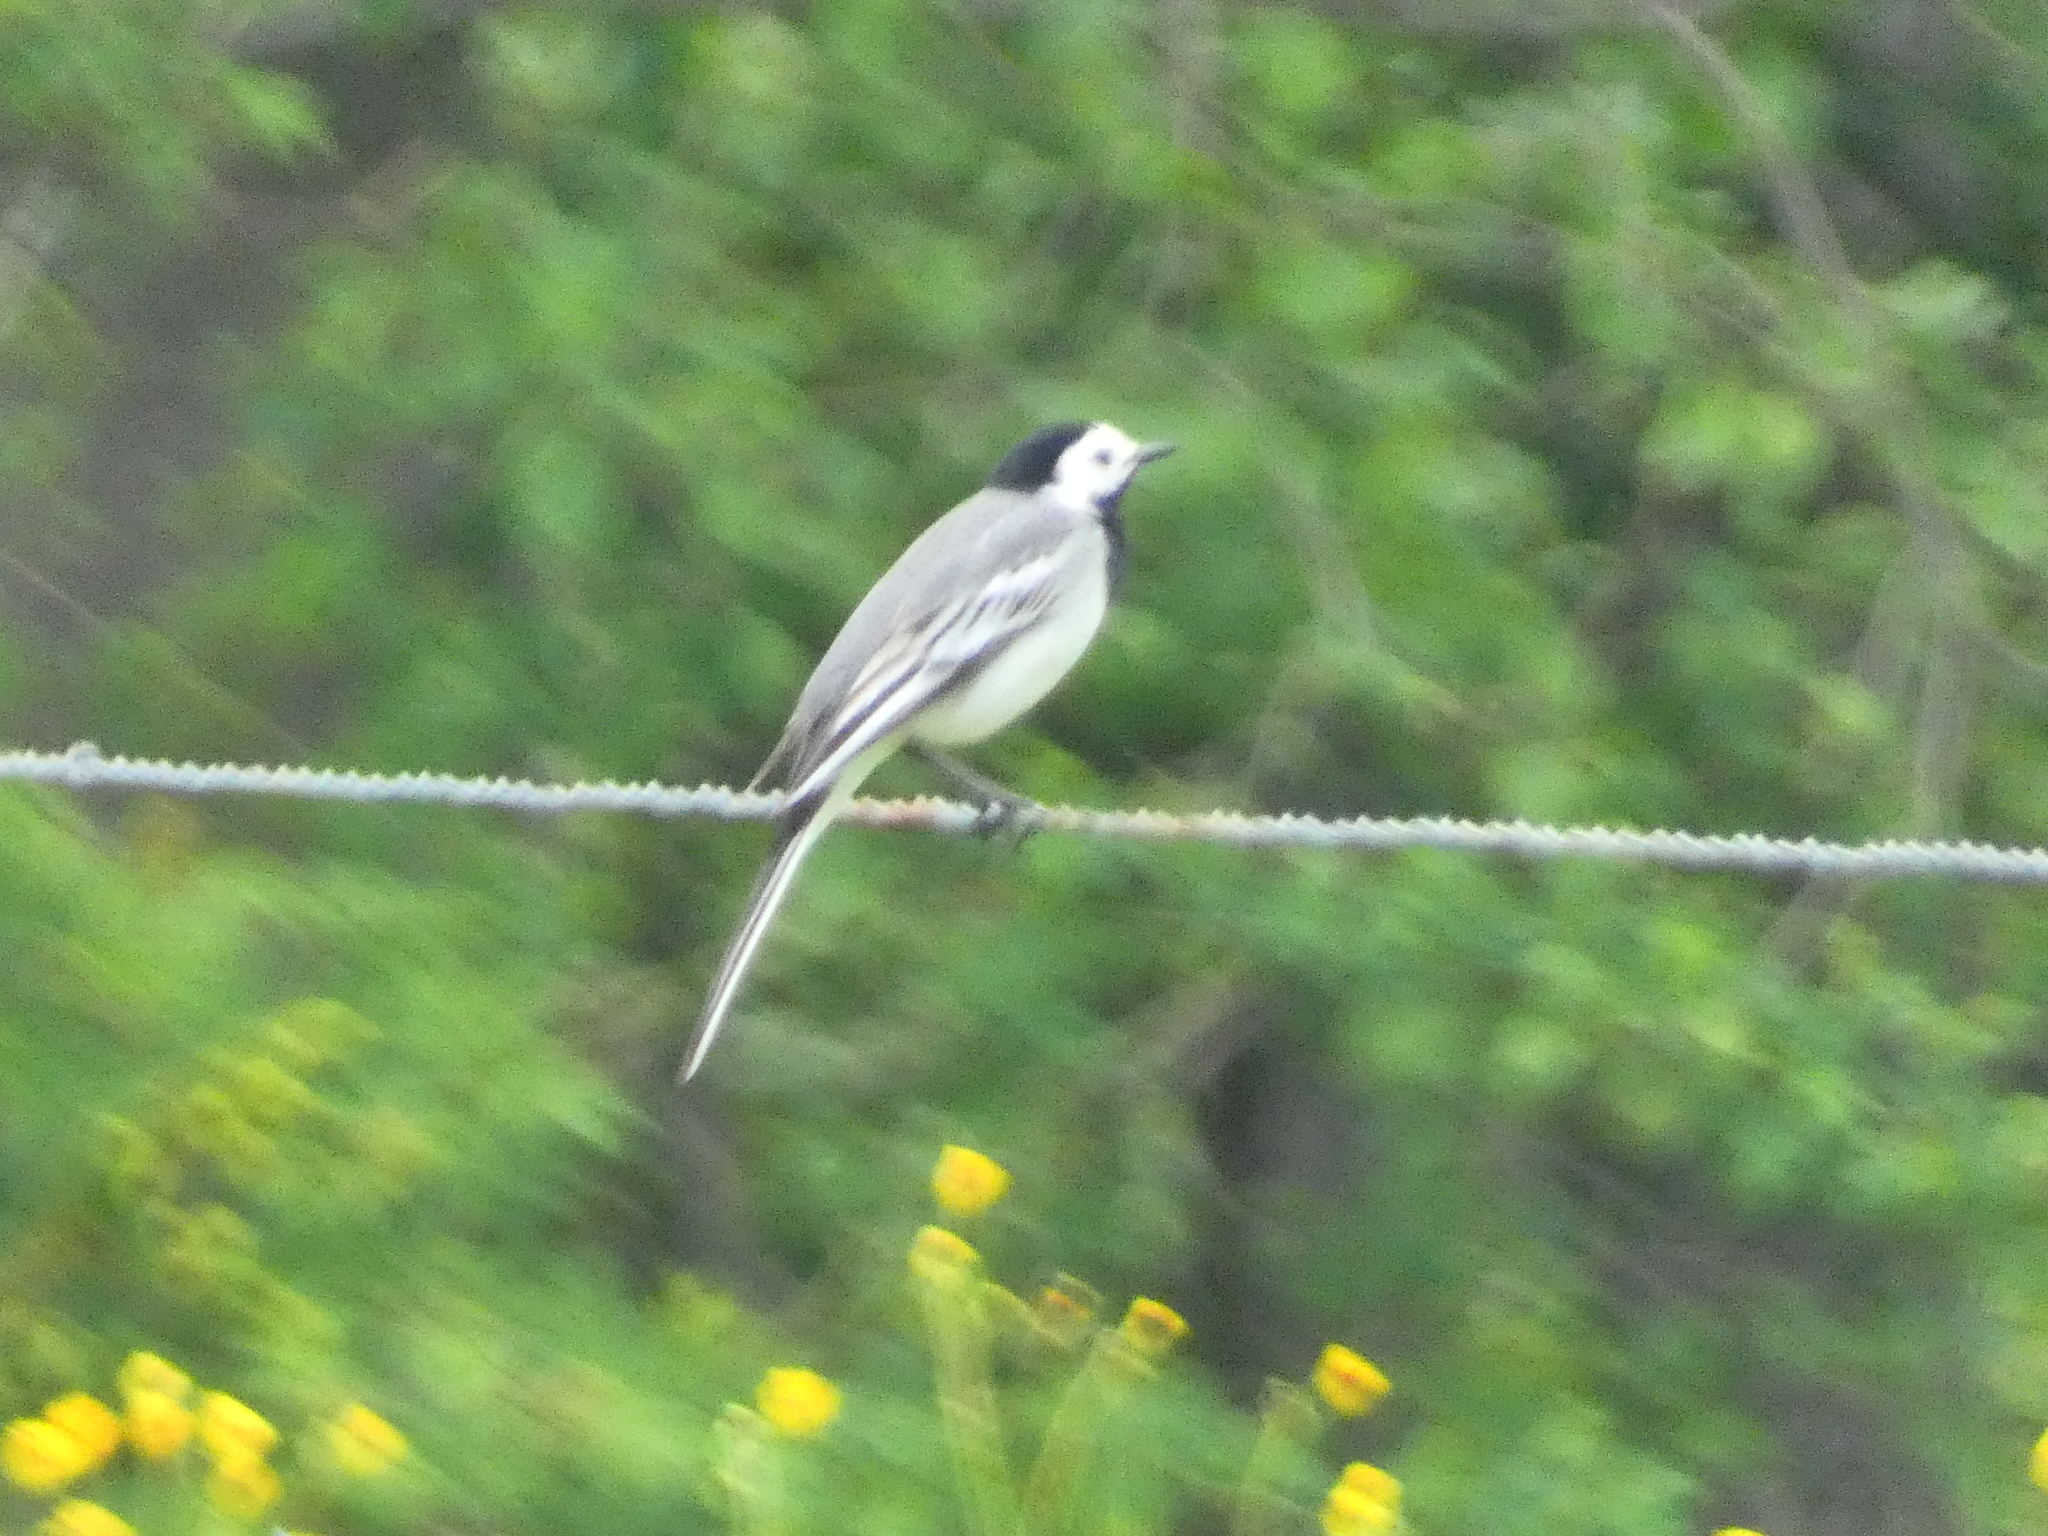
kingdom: Animalia
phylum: Chordata
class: Aves
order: Passeriformes
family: Motacillidae
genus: Motacilla
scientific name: Motacilla alba
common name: White wagtail
